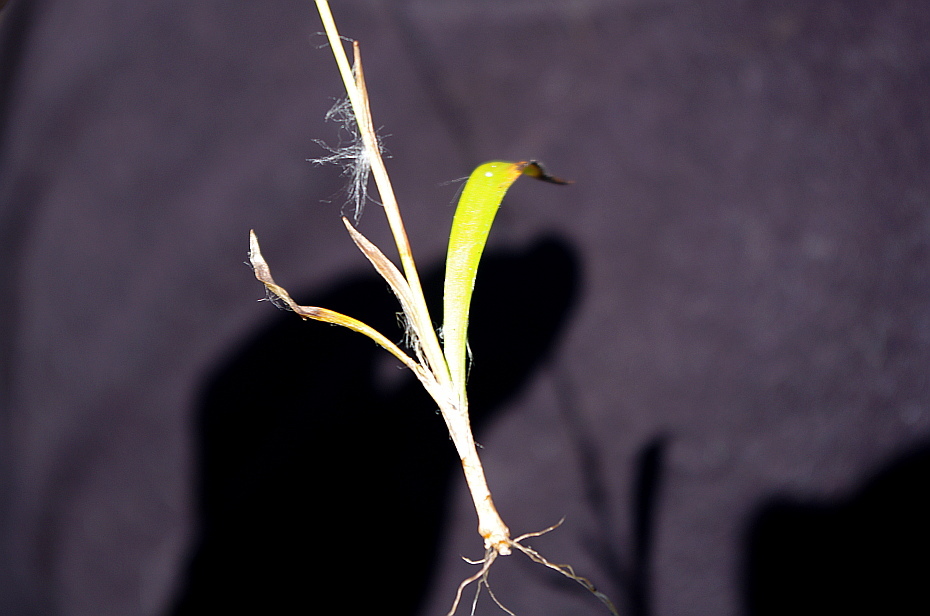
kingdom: Plantae
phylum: Tracheophyta
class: Liliopsida
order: Poales
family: Juncaceae
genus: Luzula
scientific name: Luzula pilosa
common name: Hairy wood-rush
